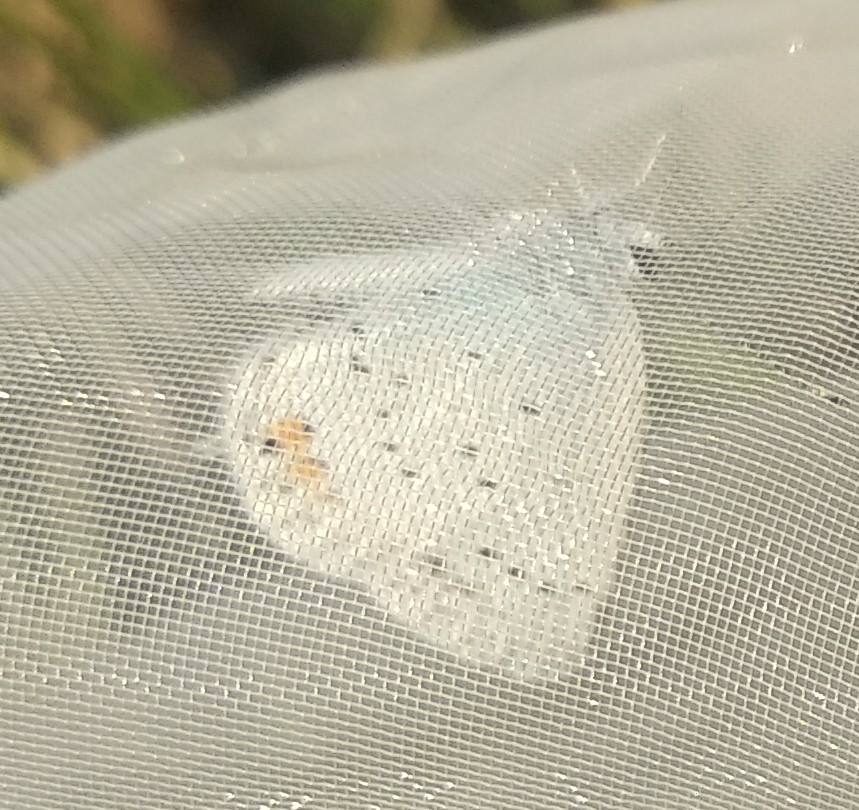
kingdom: Animalia
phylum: Arthropoda
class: Insecta
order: Lepidoptera
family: Lycaenidae
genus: Elkalyce
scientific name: Elkalyce argiades
